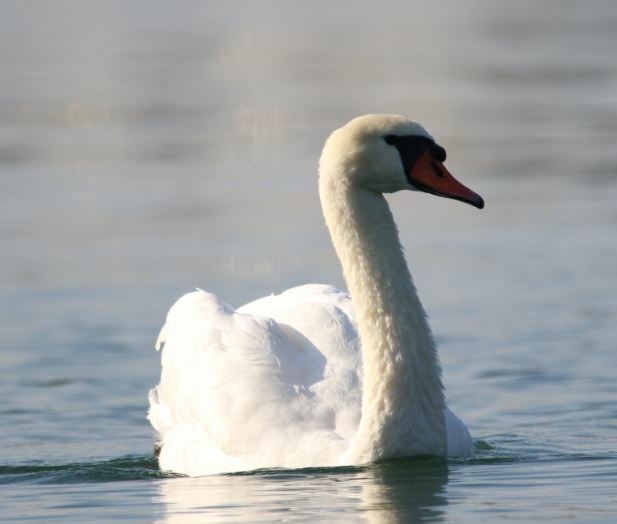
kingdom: Animalia
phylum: Chordata
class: Aves
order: Anseriformes
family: Anatidae
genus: Cygnus
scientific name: Cygnus olor
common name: Mute swan
